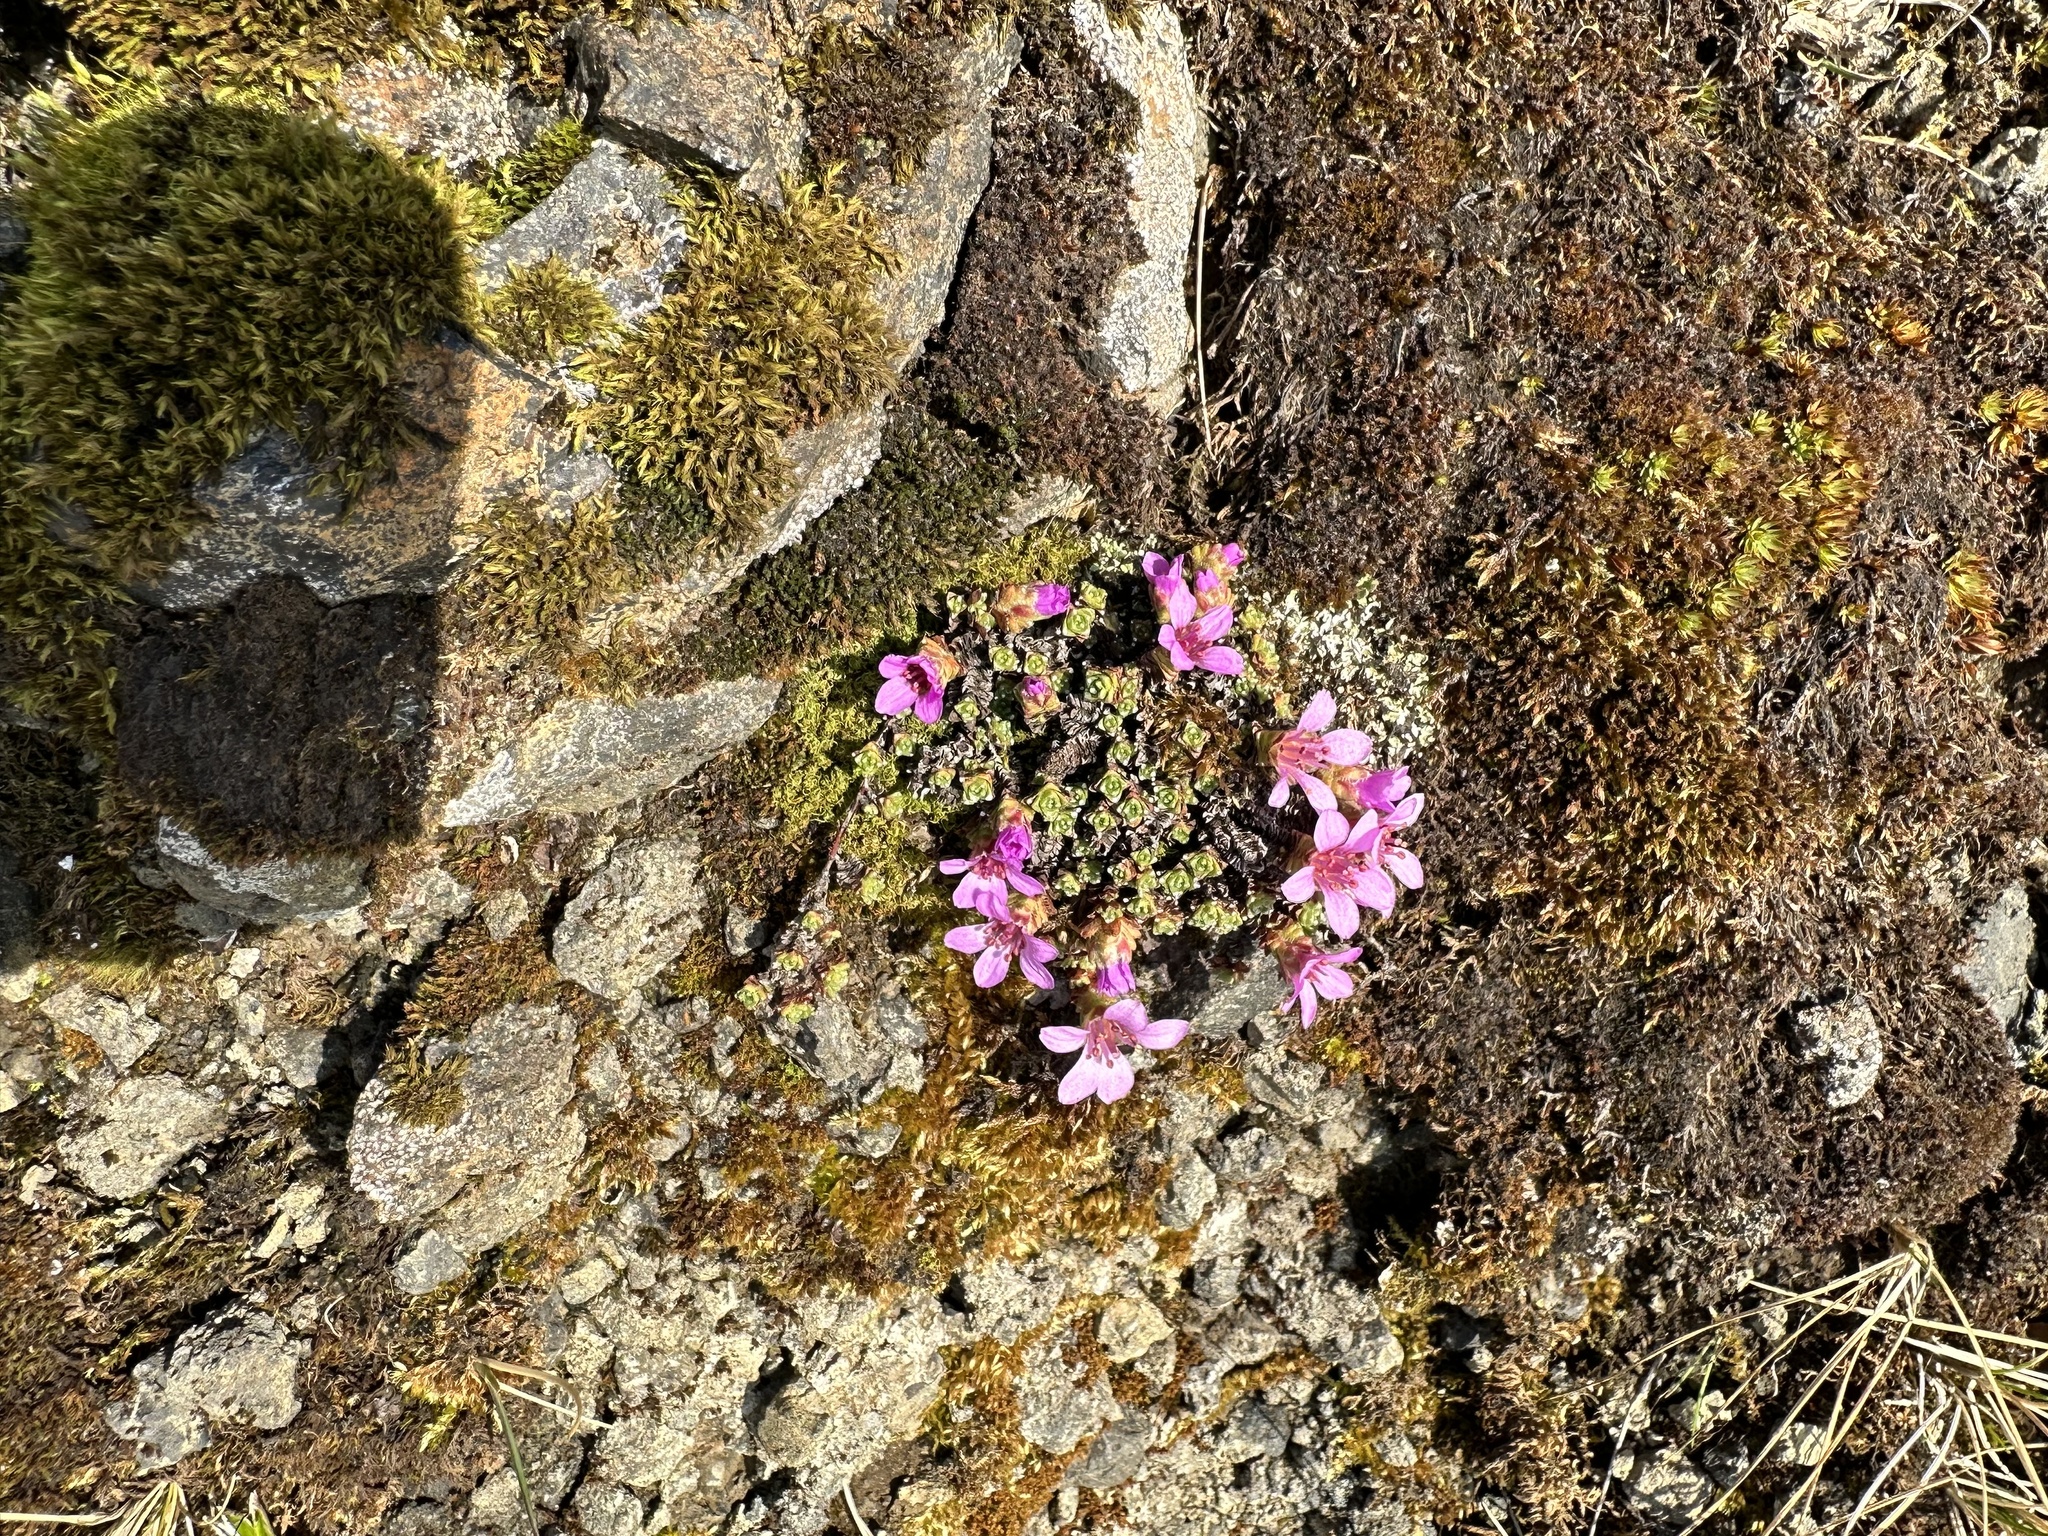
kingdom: Plantae
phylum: Tracheophyta
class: Magnoliopsida
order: Saxifragales
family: Saxifragaceae
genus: Saxifraga
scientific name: Saxifraga oppositifolia
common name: Purple saxifrage
